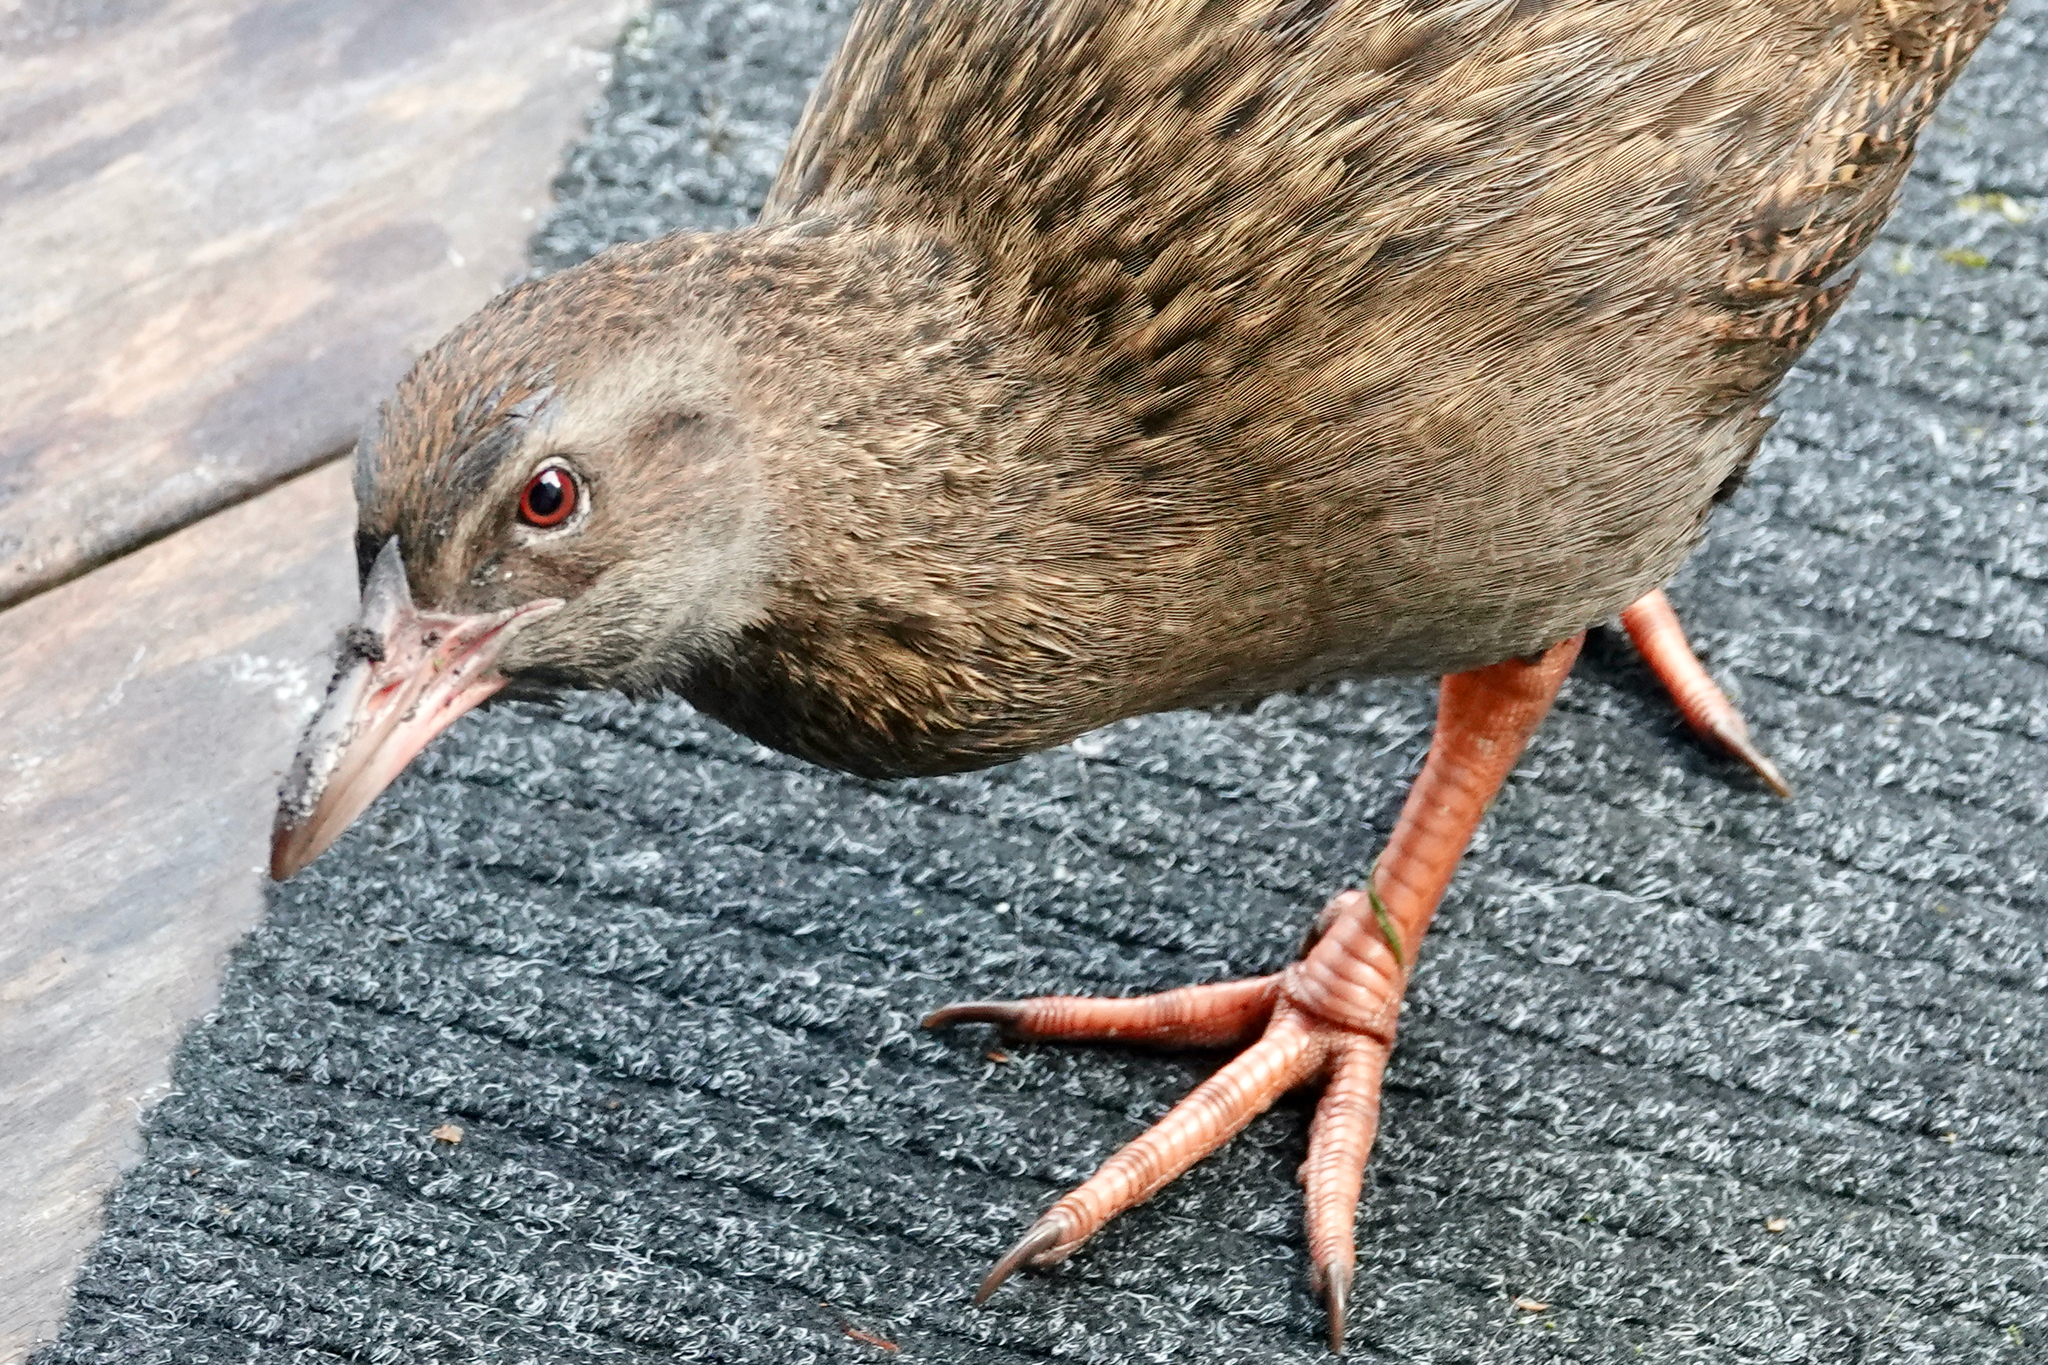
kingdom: Animalia
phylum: Chordata
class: Aves
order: Gruiformes
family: Rallidae
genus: Gallirallus
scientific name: Gallirallus australis
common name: Weka
